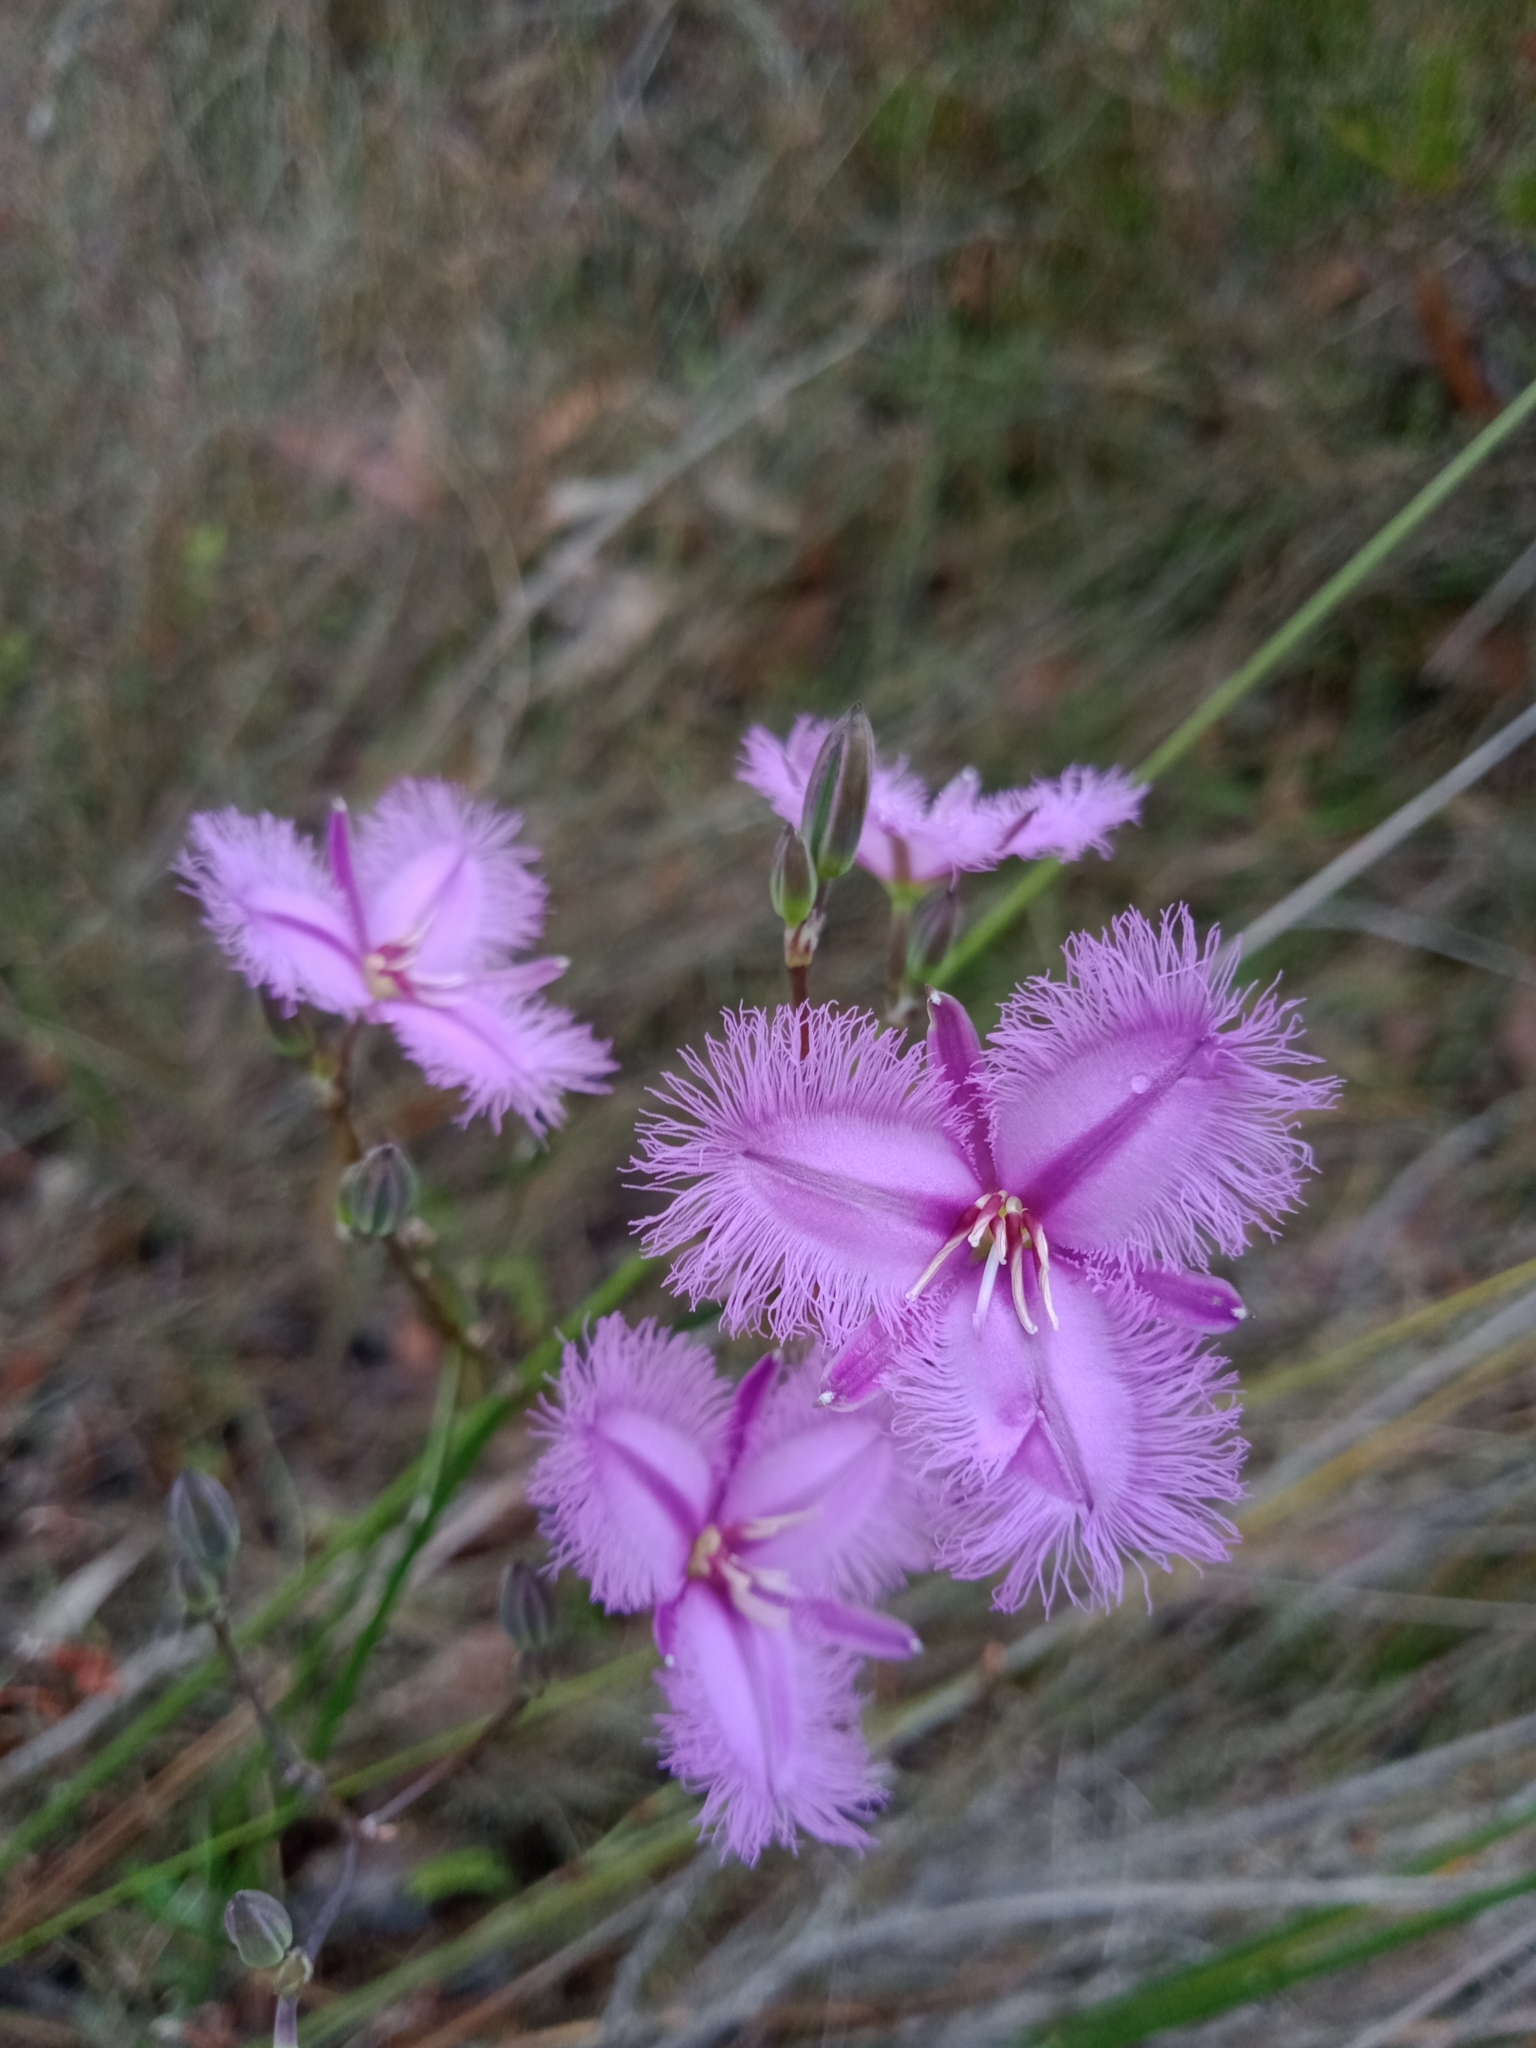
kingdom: Plantae
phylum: Tracheophyta
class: Liliopsida
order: Asparagales
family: Asparagaceae
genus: Thysanotus
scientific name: Thysanotus tuberosus
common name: Common fringed-lily
